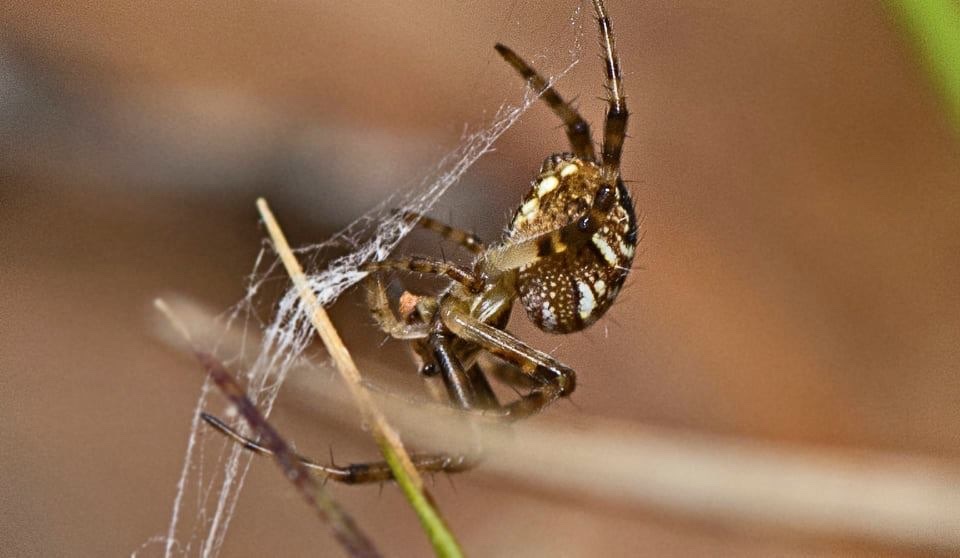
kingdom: Animalia
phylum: Arthropoda
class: Arachnida
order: Araneae
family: Araneidae
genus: Gea
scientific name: Gea theridioides
